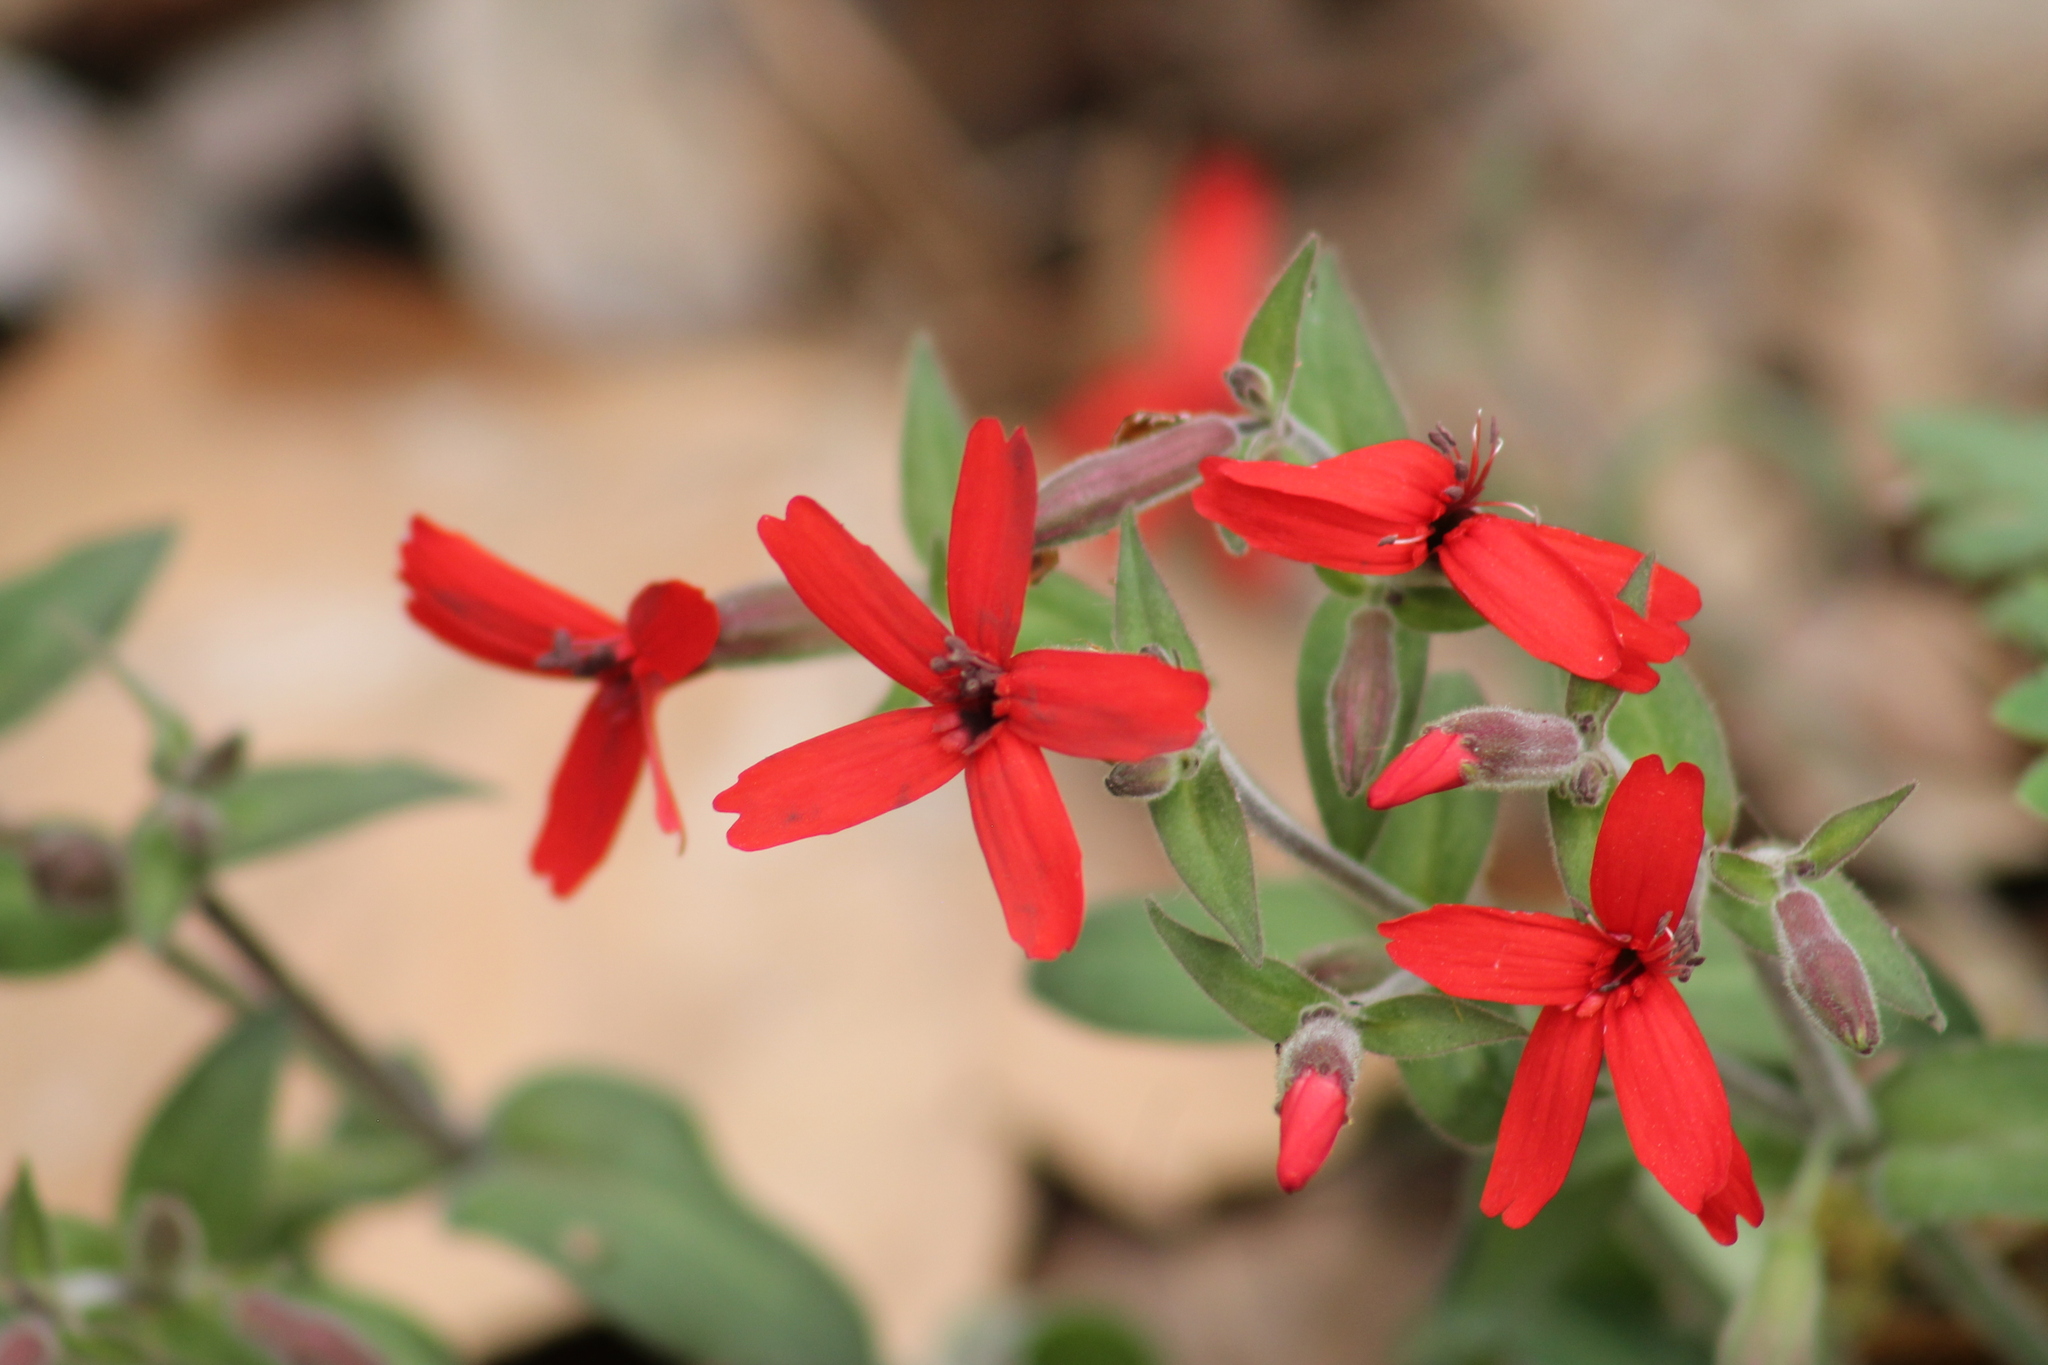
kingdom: Plantae
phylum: Tracheophyta
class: Magnoliopsida
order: Caryophyllales
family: Caryophyllaceae
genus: Silene
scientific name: Silene virginica
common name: Fire-pink
